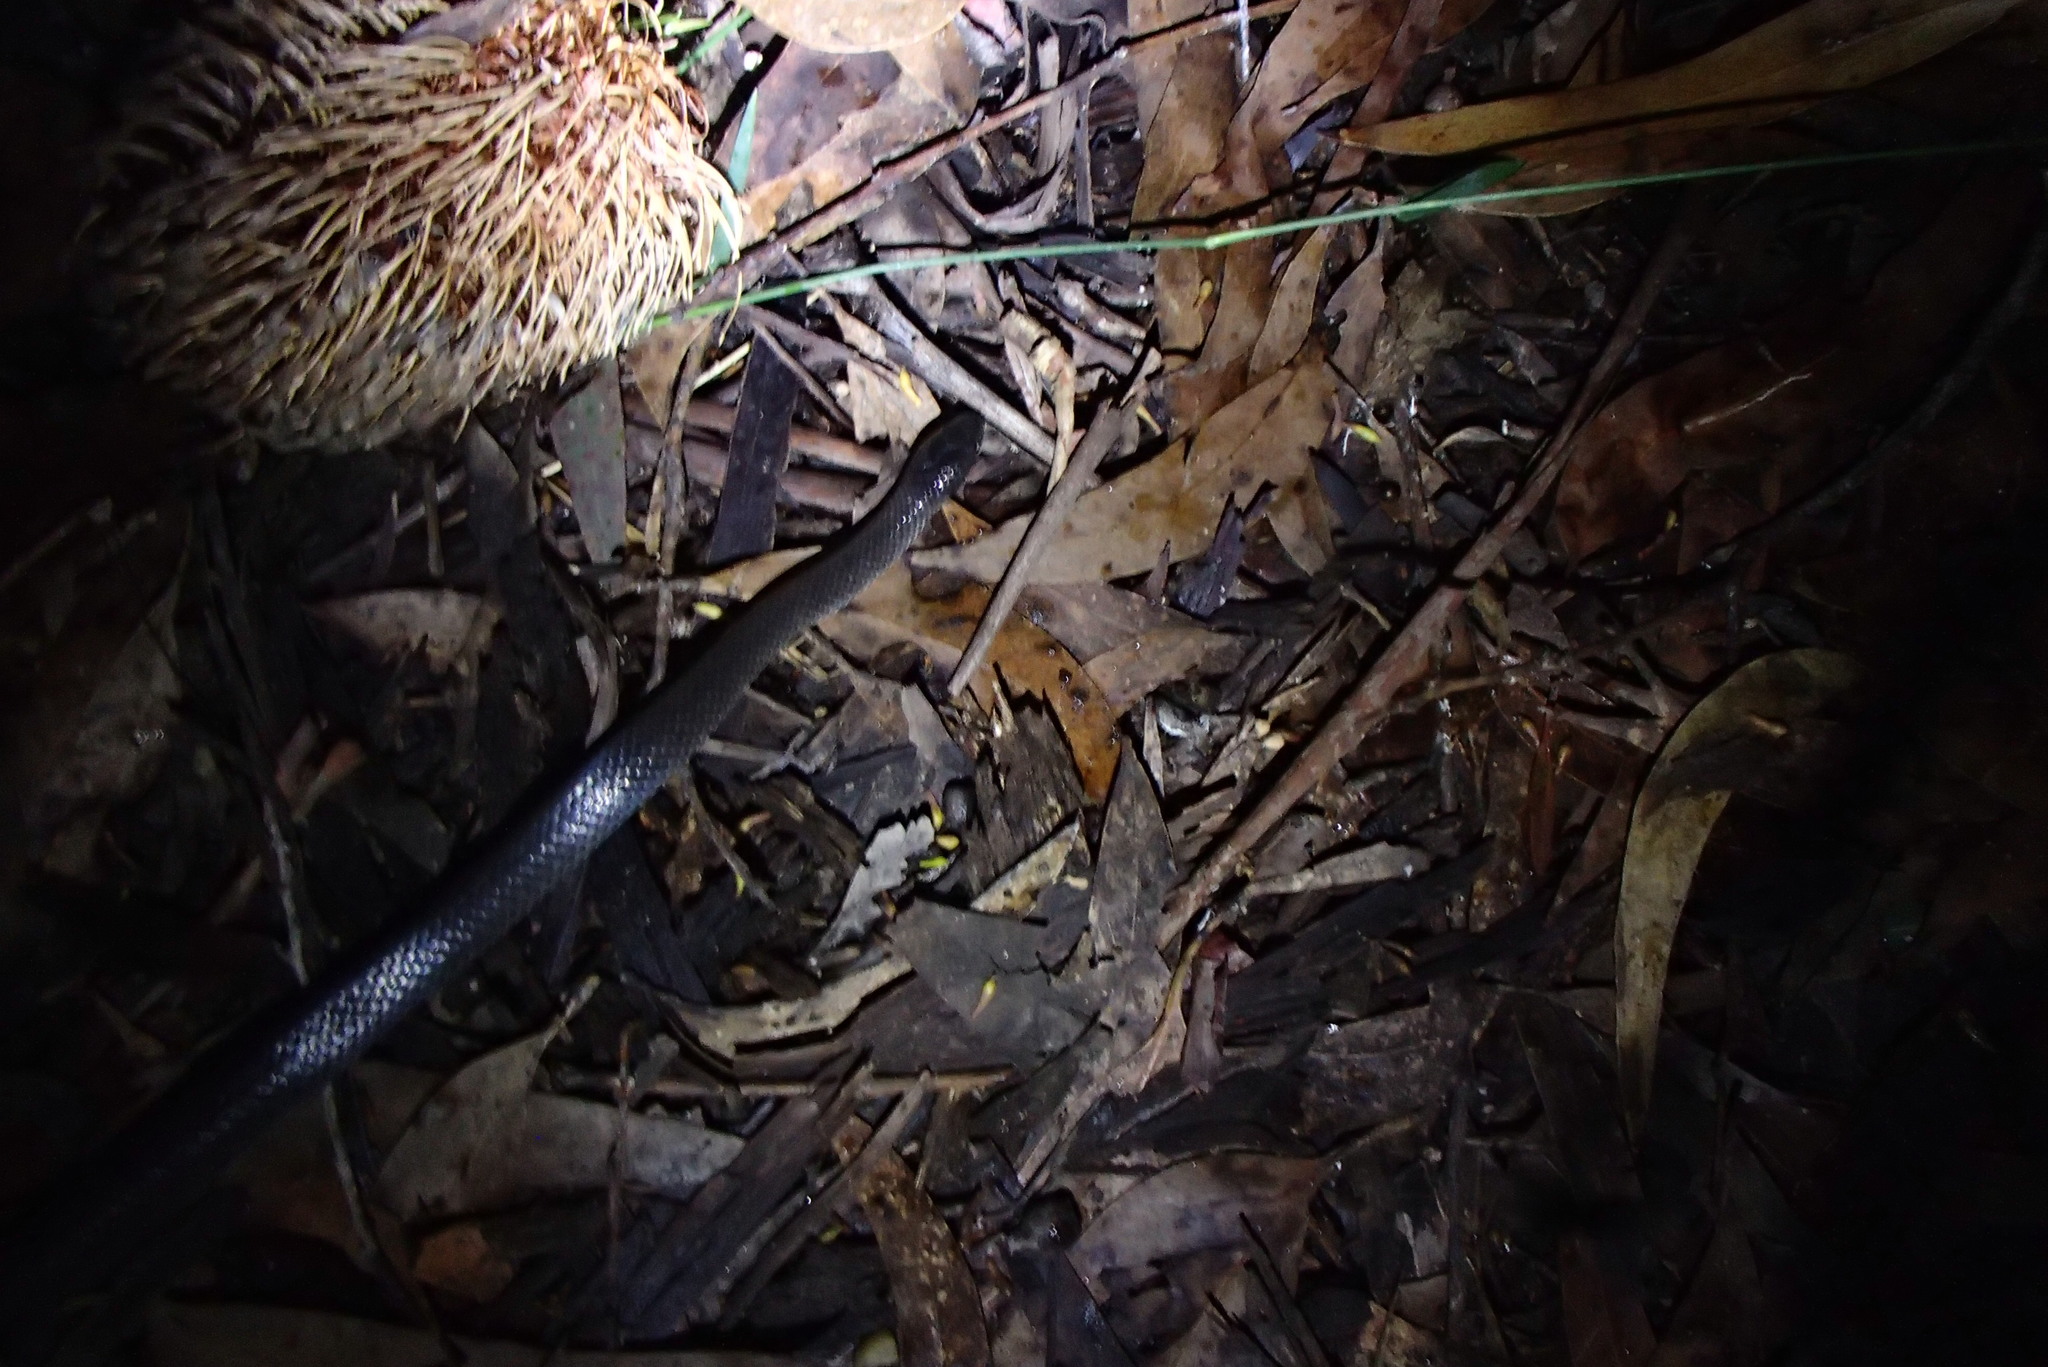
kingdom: Animalia
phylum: Chordata
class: Squamata
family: Elapidae
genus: Cryptophis
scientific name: Cryptophis nigrescens
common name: Eastern small-eyed snake
